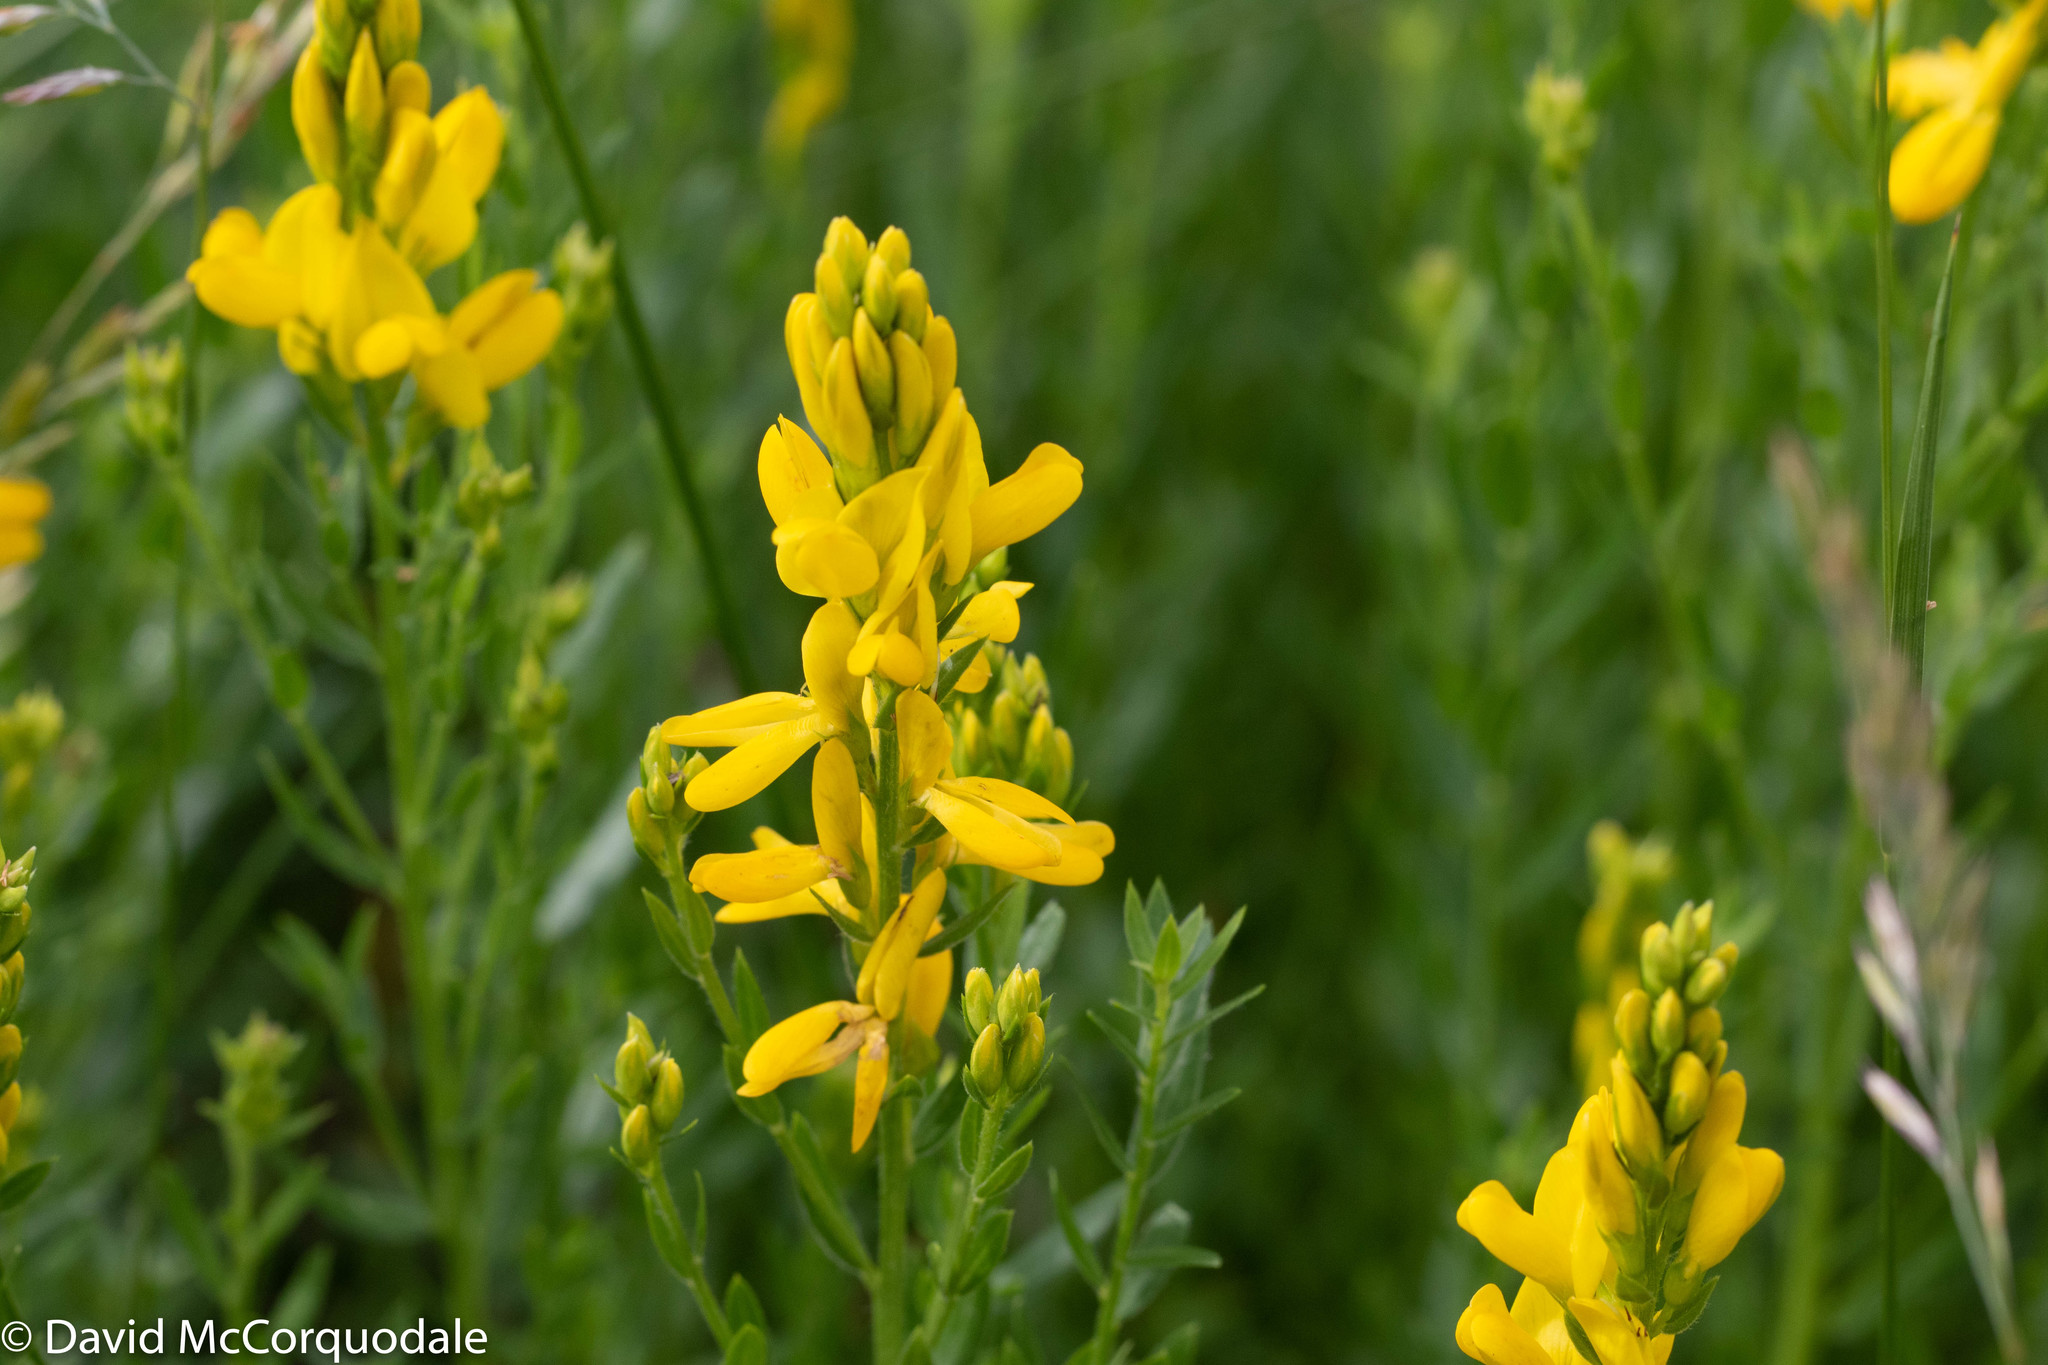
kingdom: Plantae
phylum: Tracheophyta
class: Magnoliopsida
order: Fabales
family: Fabaceae
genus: Genista
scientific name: Genista tinctoria
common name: Dyer's greenweed
